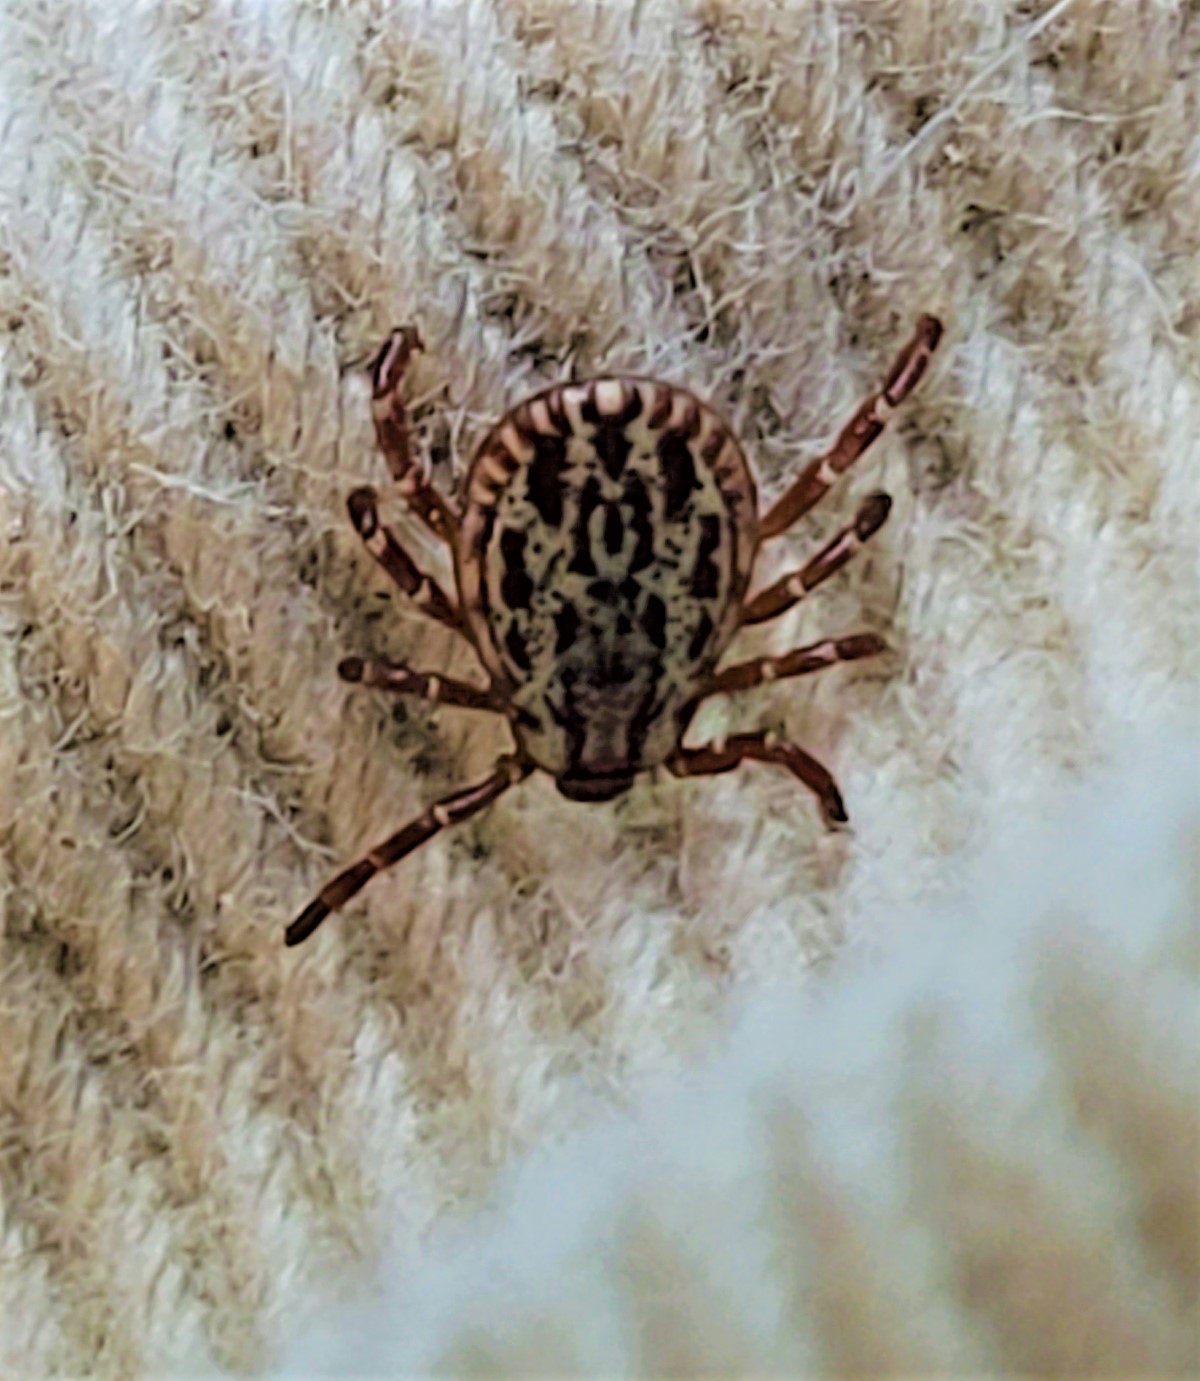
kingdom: Animalia
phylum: Arthropoda
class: Arachnida
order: Ixodida
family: Ixodidae
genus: Dermacentor
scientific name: Dermacentor variabilis
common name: American dog tick
